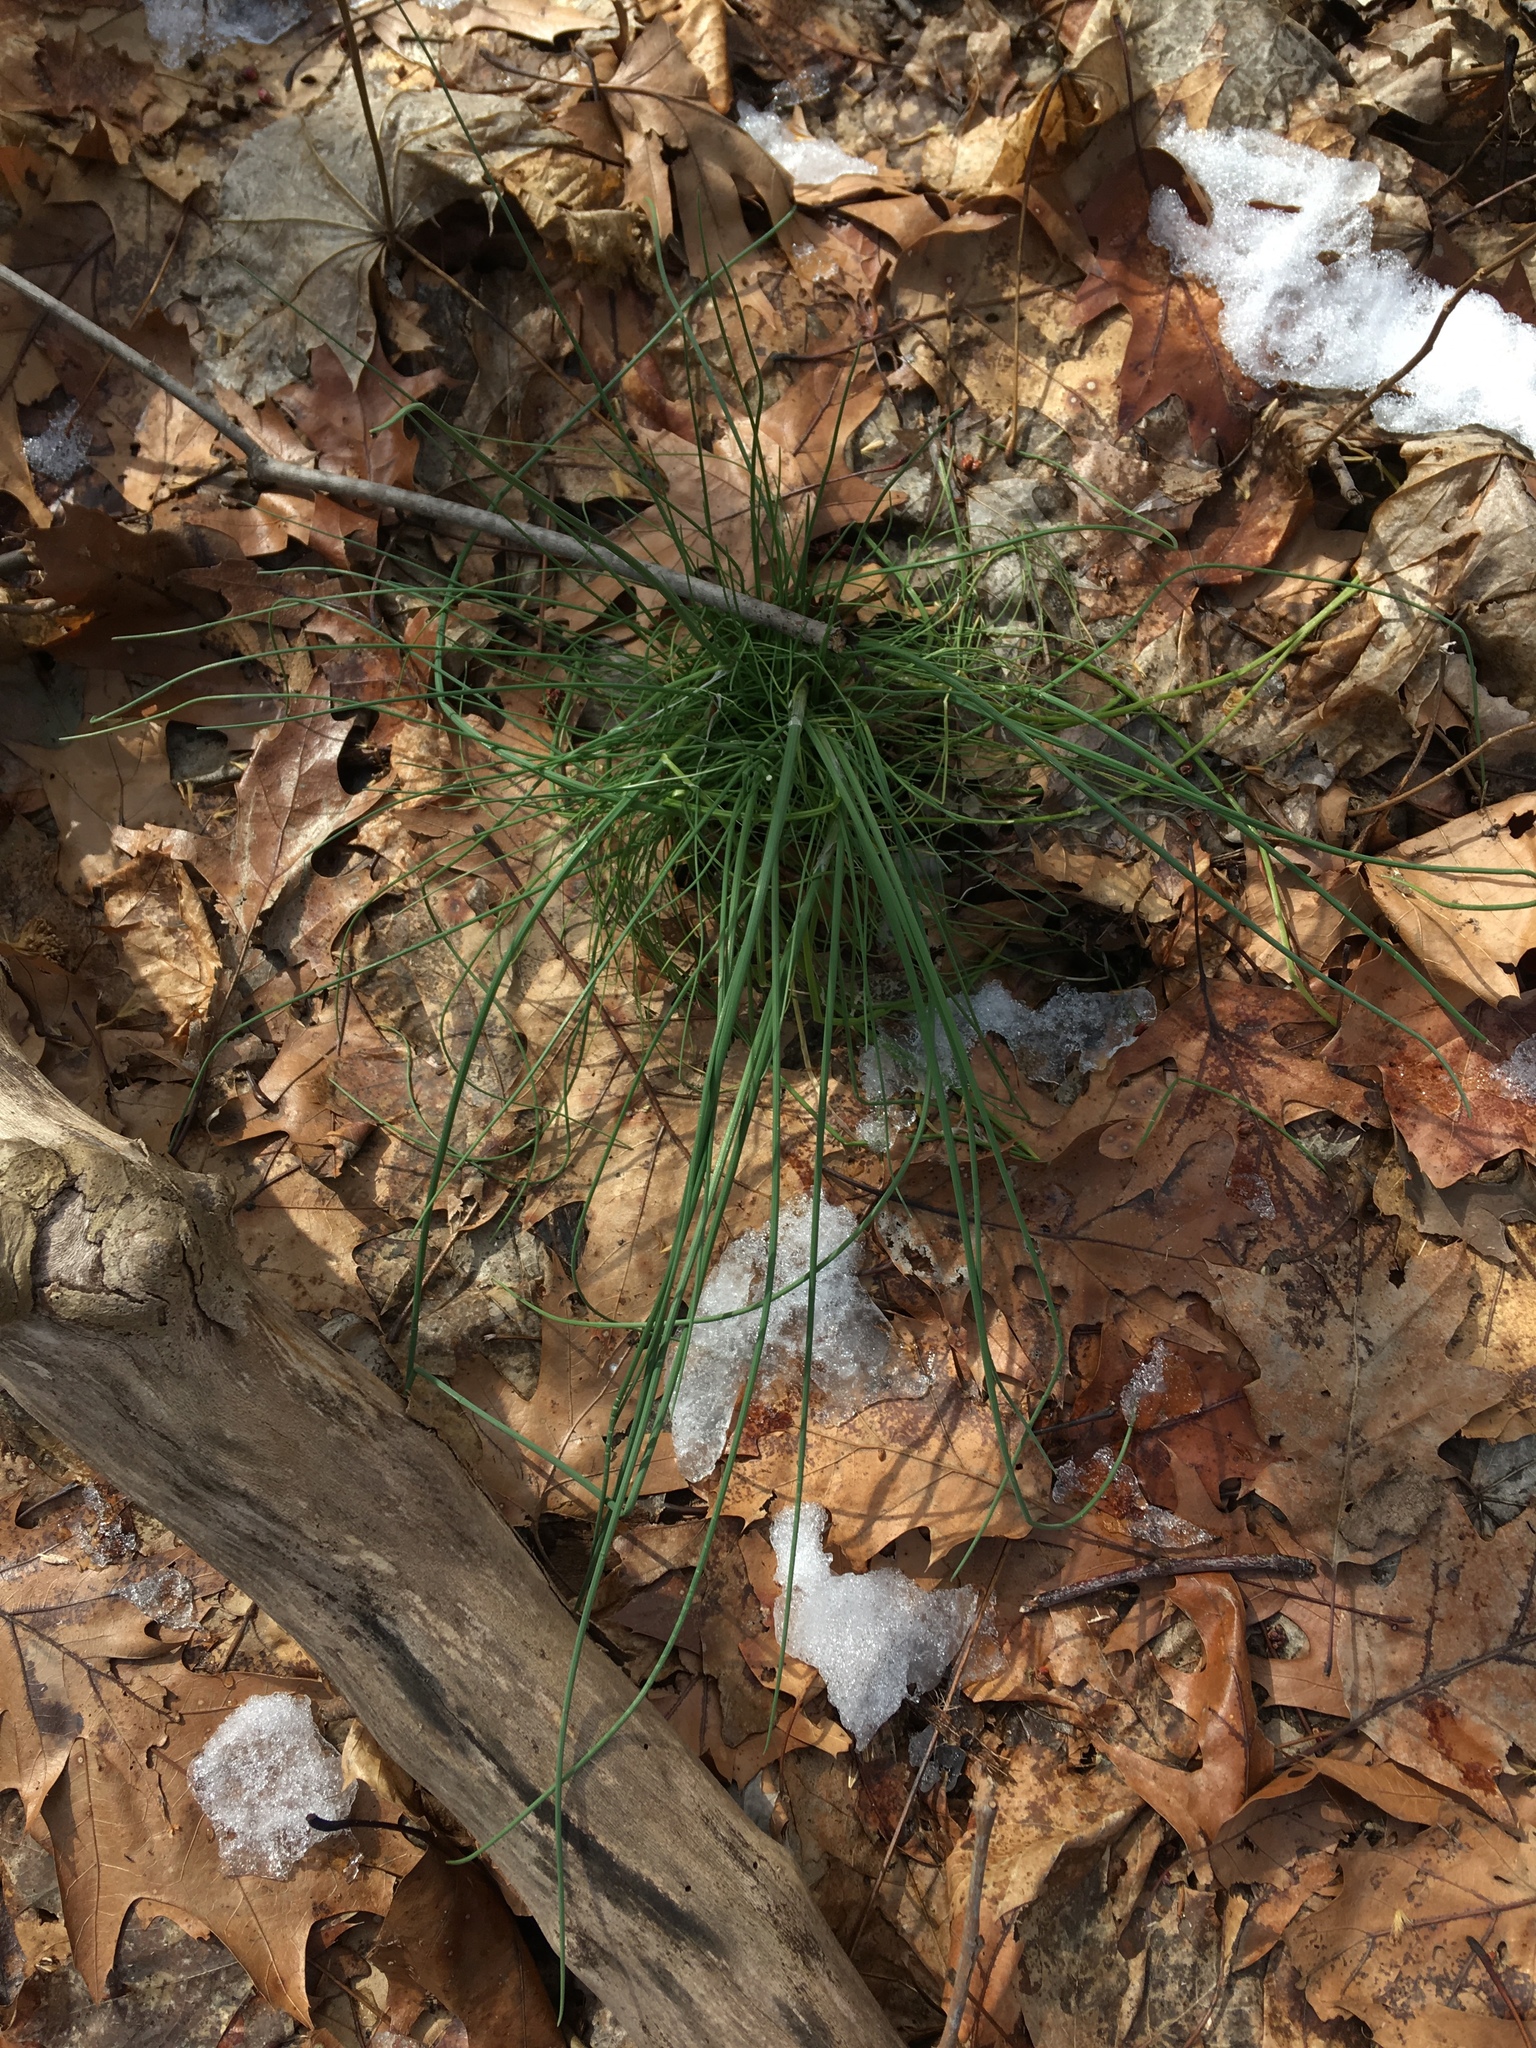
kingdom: Plantae
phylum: Tracheophyta
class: Liliopsida
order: Asparagales
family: Amaryllidaceae
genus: Allium
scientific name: Allium vineale
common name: Crow garlic
